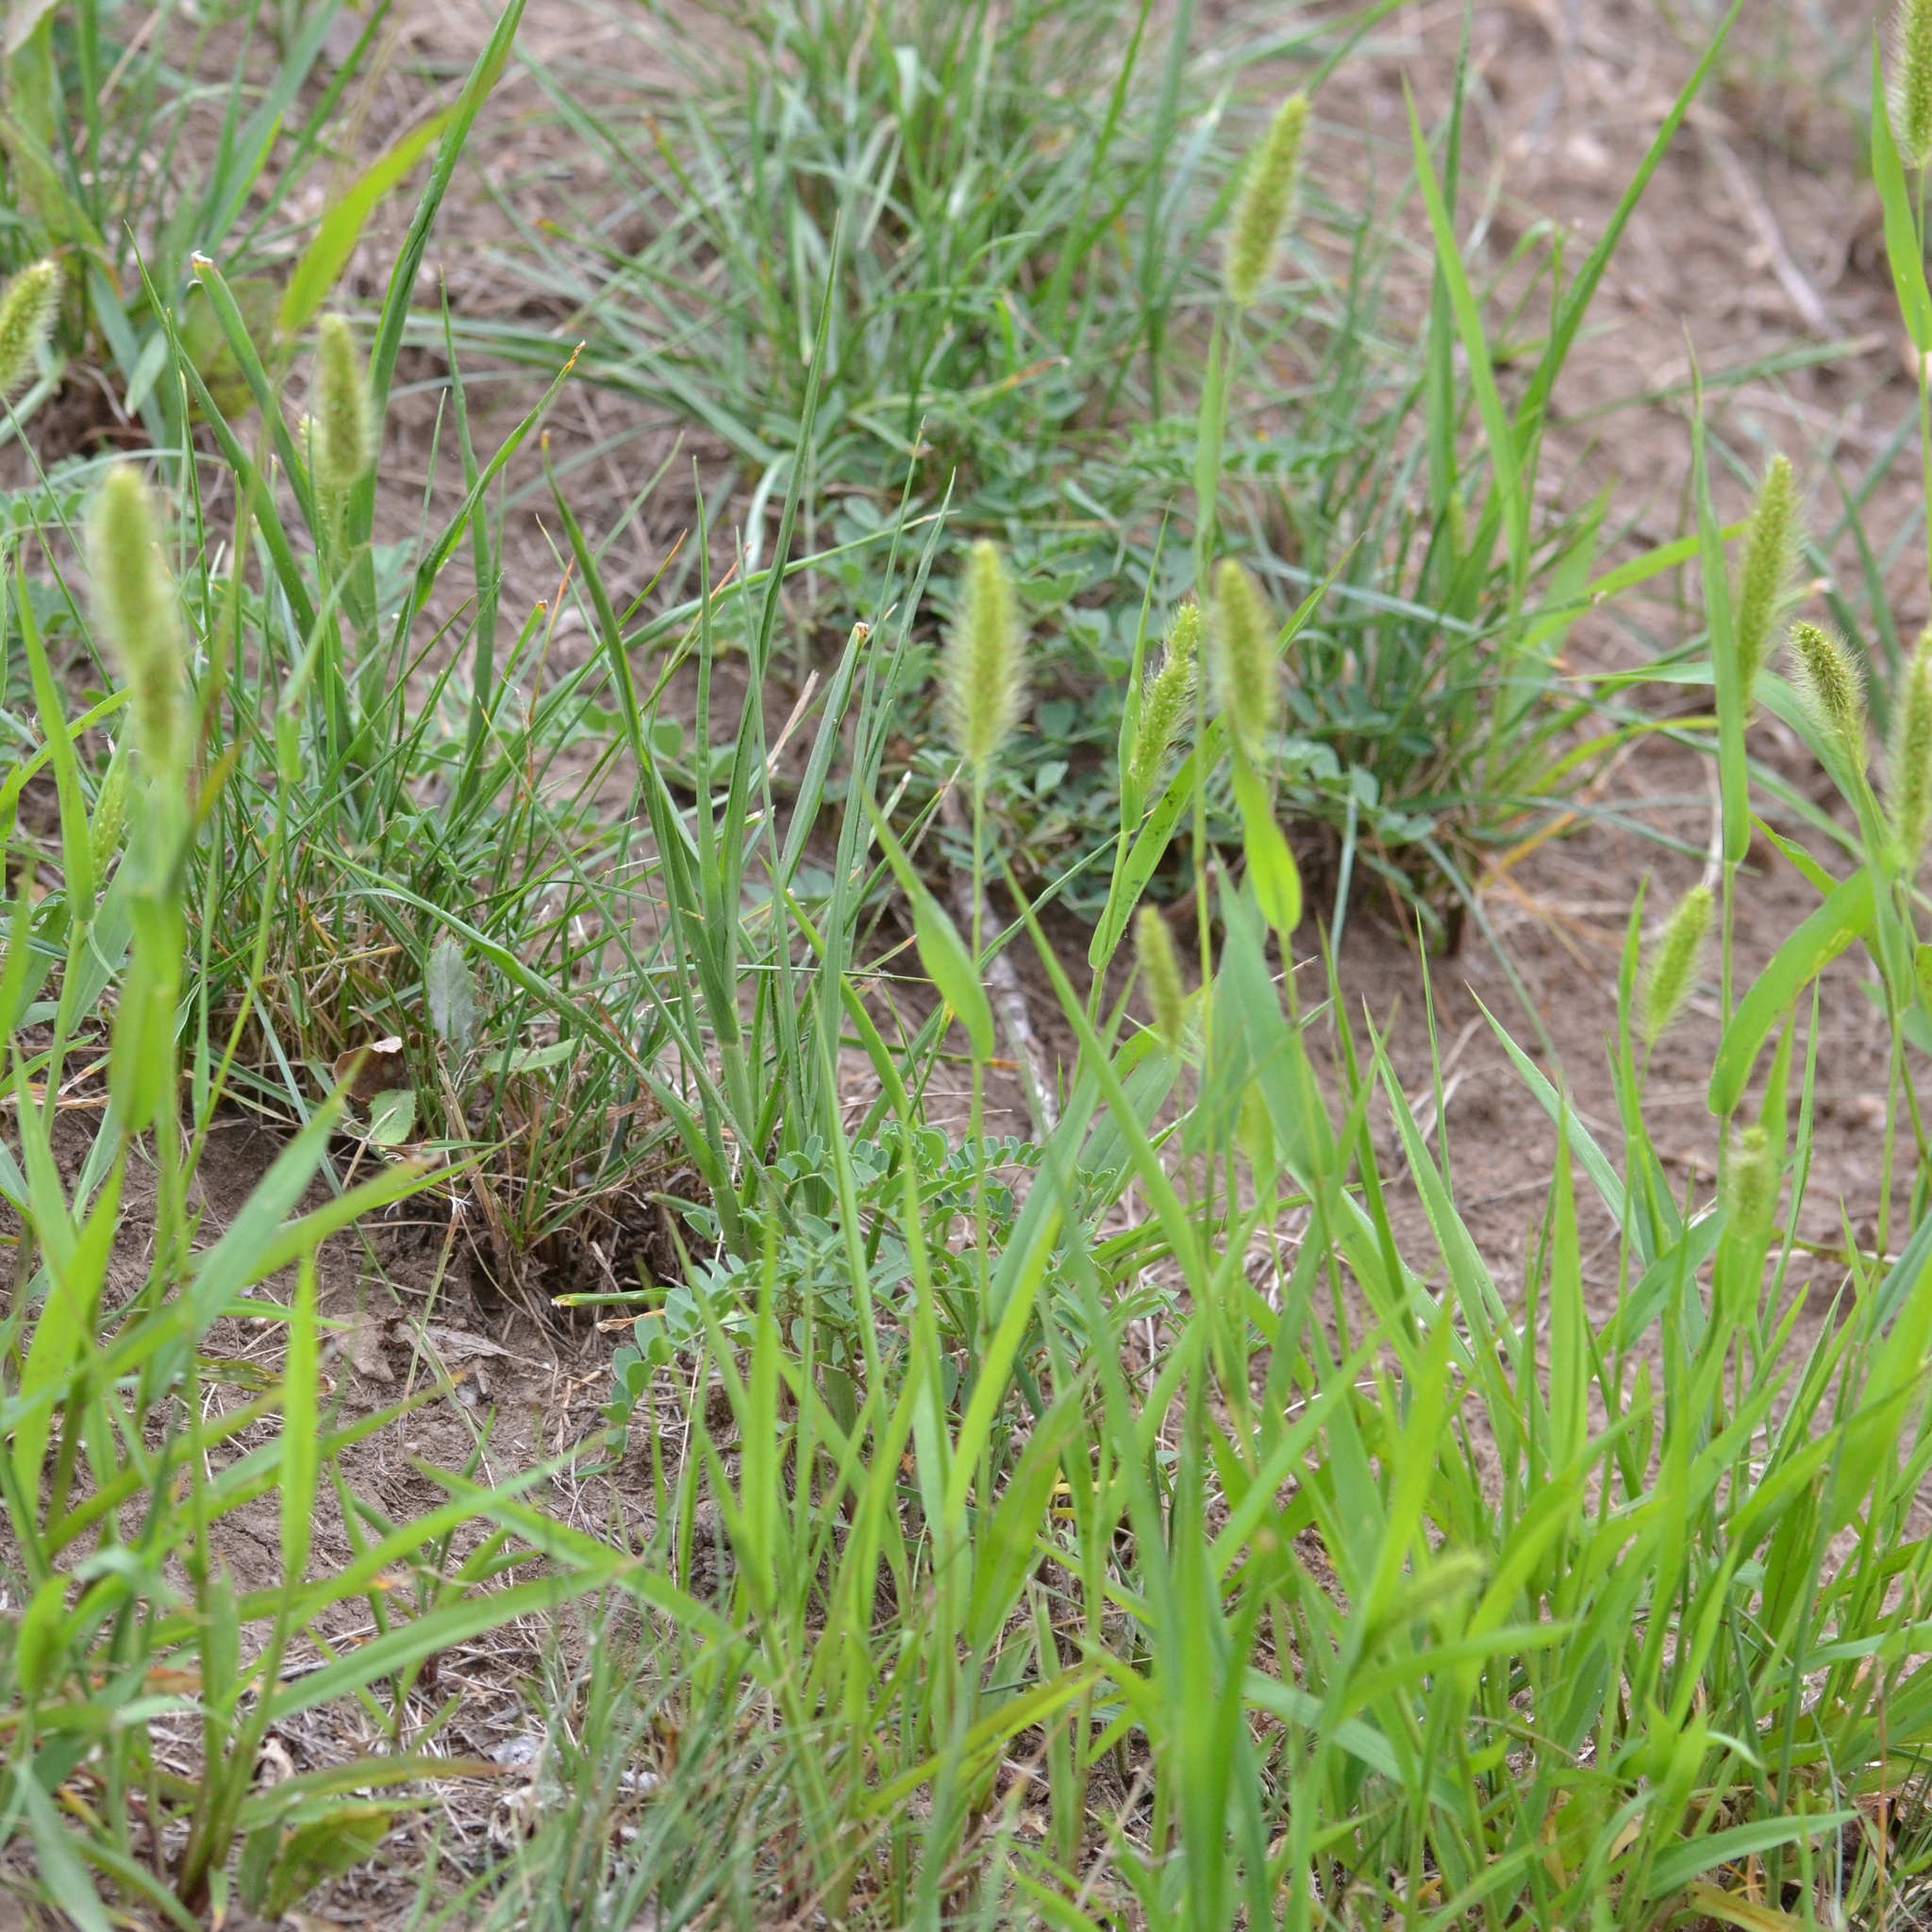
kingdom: Plantae
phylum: Tracheophyta
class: Liliopsida
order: Poales
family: Poaceae
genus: Setaria
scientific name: Setaria viridis
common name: Green bristlegrass
